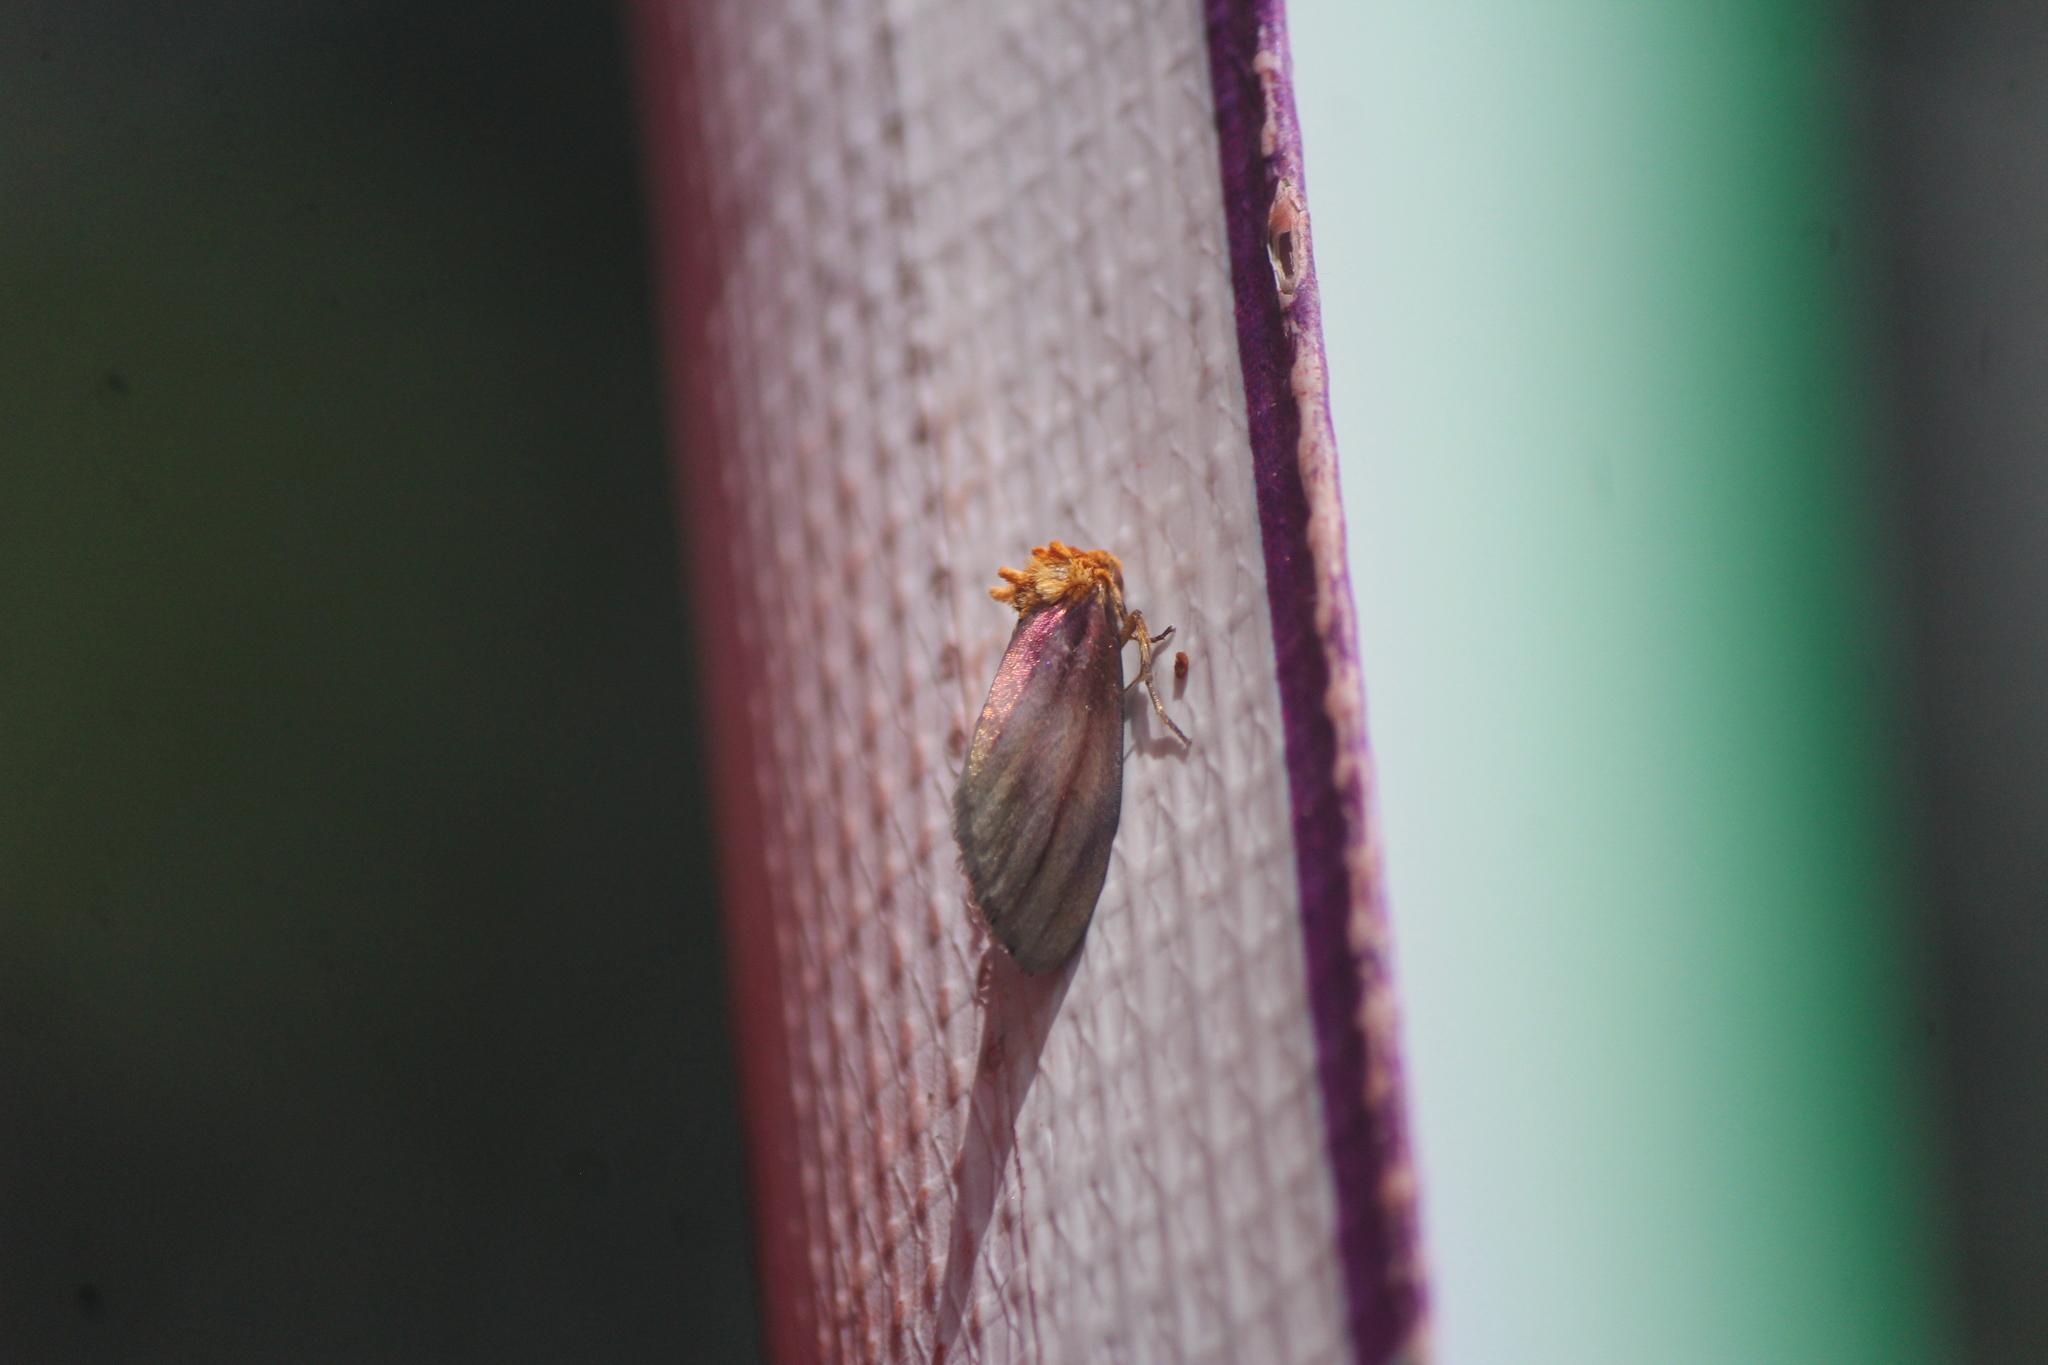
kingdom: Animalia
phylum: Arthropoda
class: Insecta
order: Lepidoptera
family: Noctuidae
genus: Antaplaga
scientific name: Antaplaga plesioglauca
